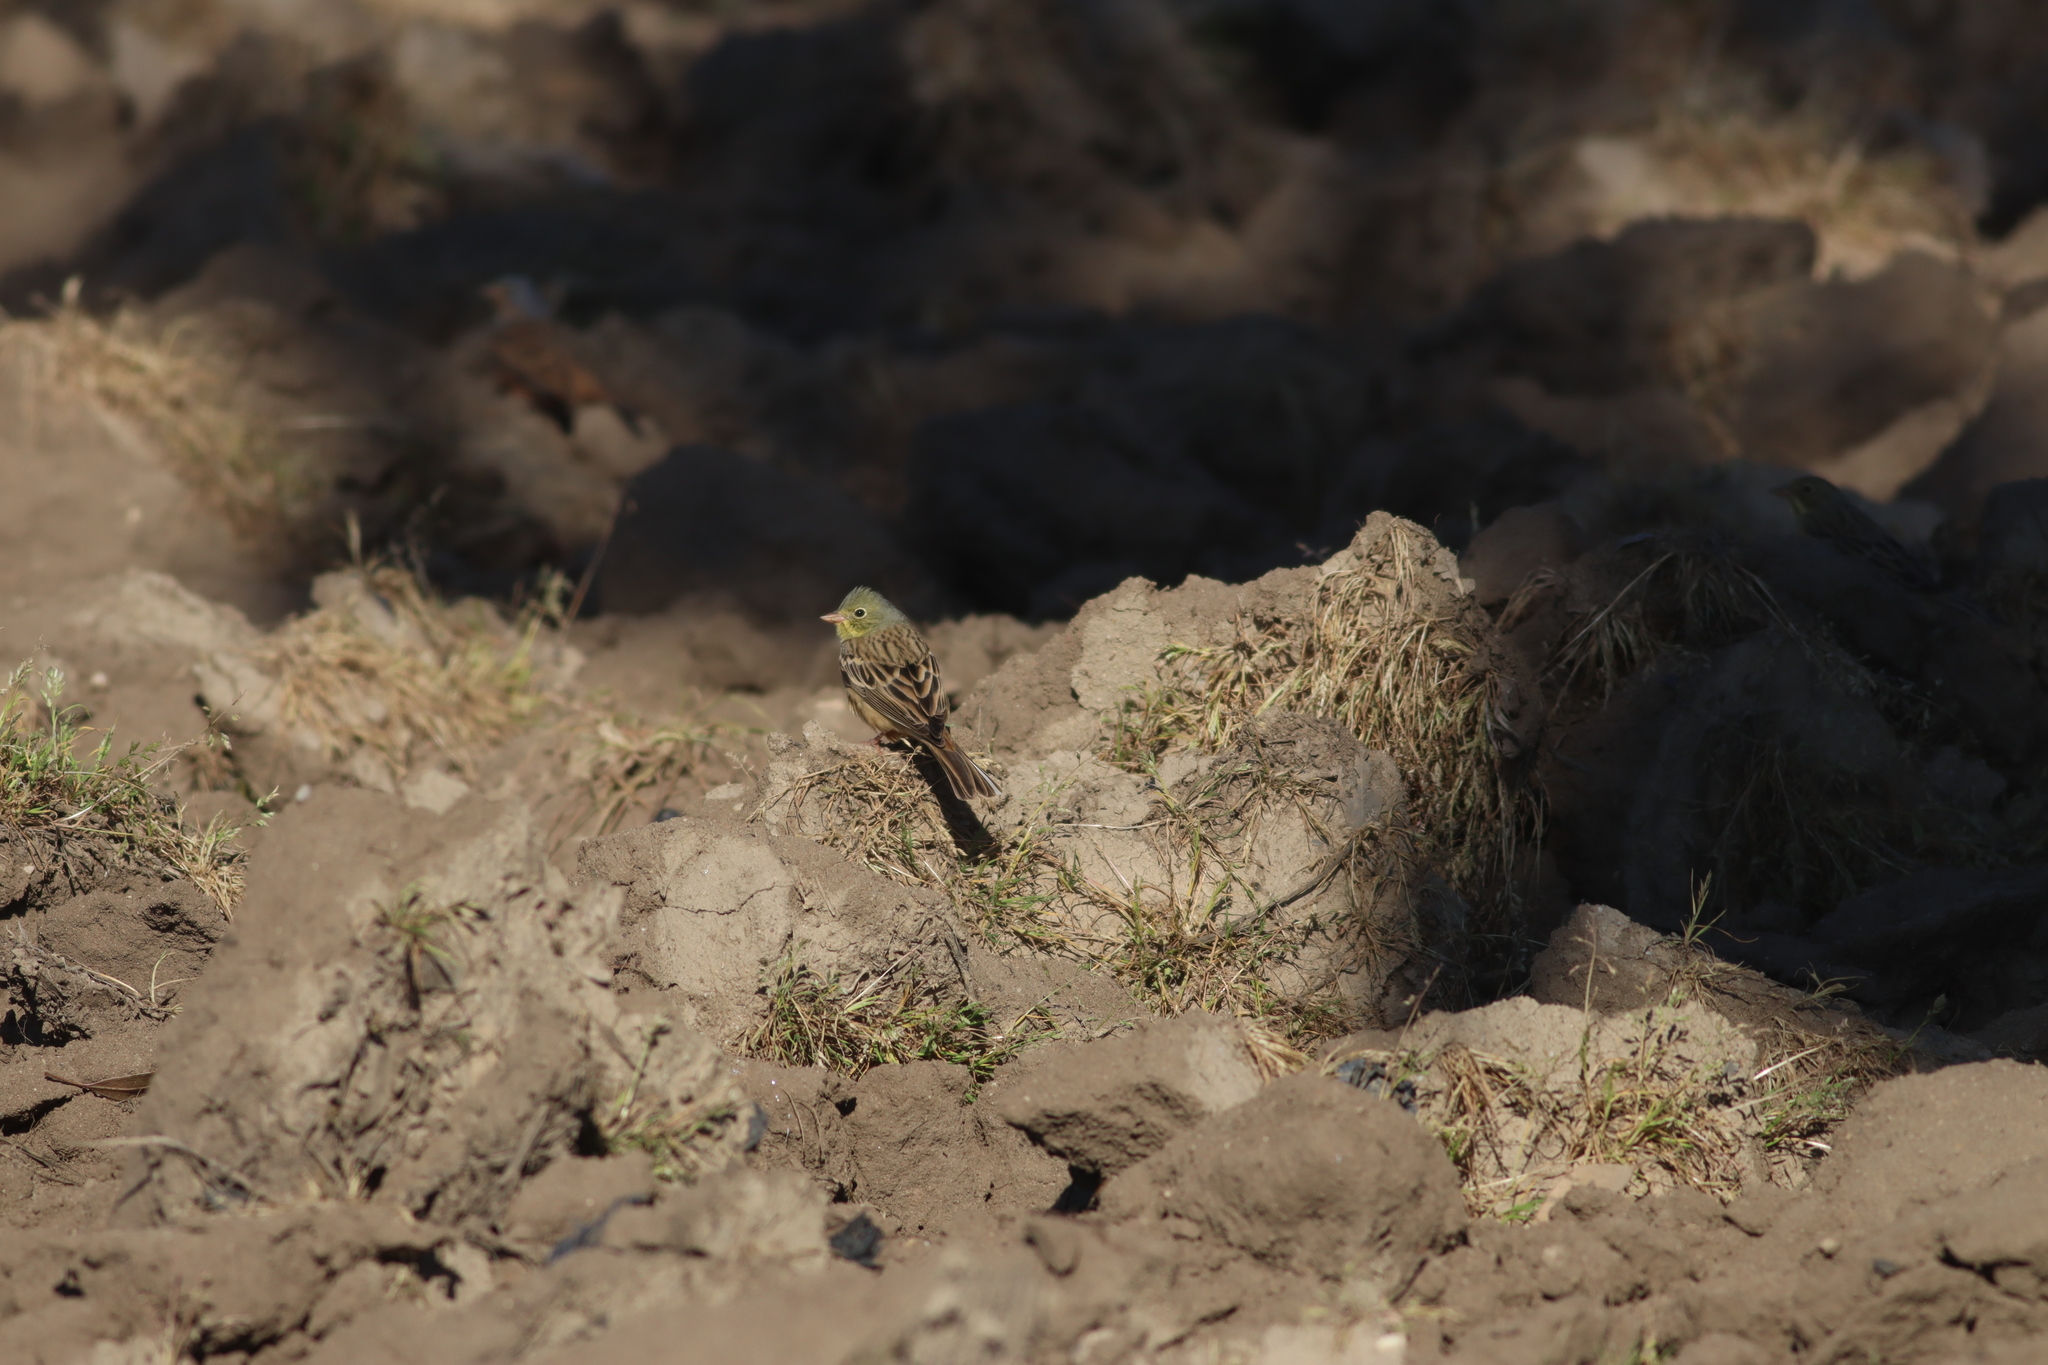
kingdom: Animalia
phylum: Chordata
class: Aves
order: Passeriformes
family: Emberizidae
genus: Emberiza
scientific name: Emberiza hortulana
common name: Ortolan bunting
